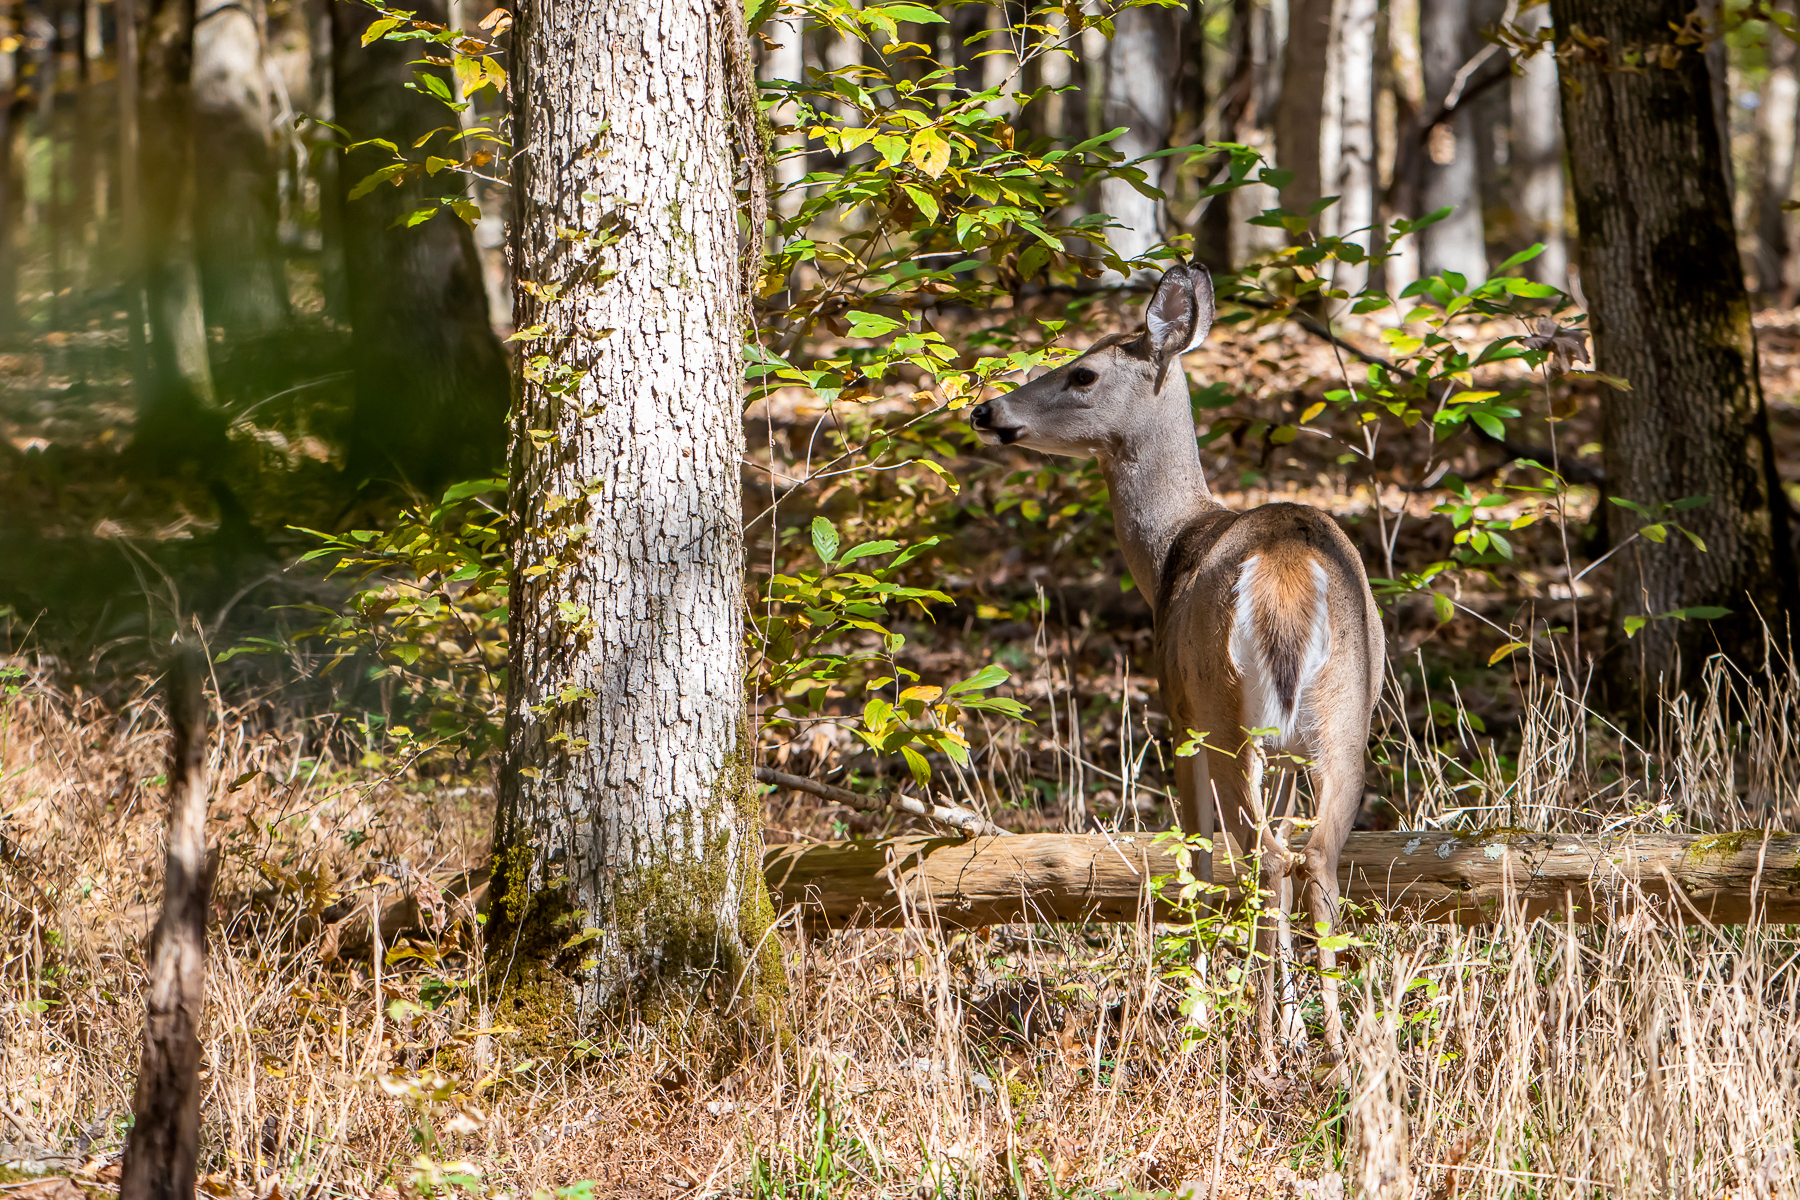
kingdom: Animalia
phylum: Chordata
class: Mammalia
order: Artiodactyla
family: Cervidae
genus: Odocoileus
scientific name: Odocoileus virginianus
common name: White-tailed deer
